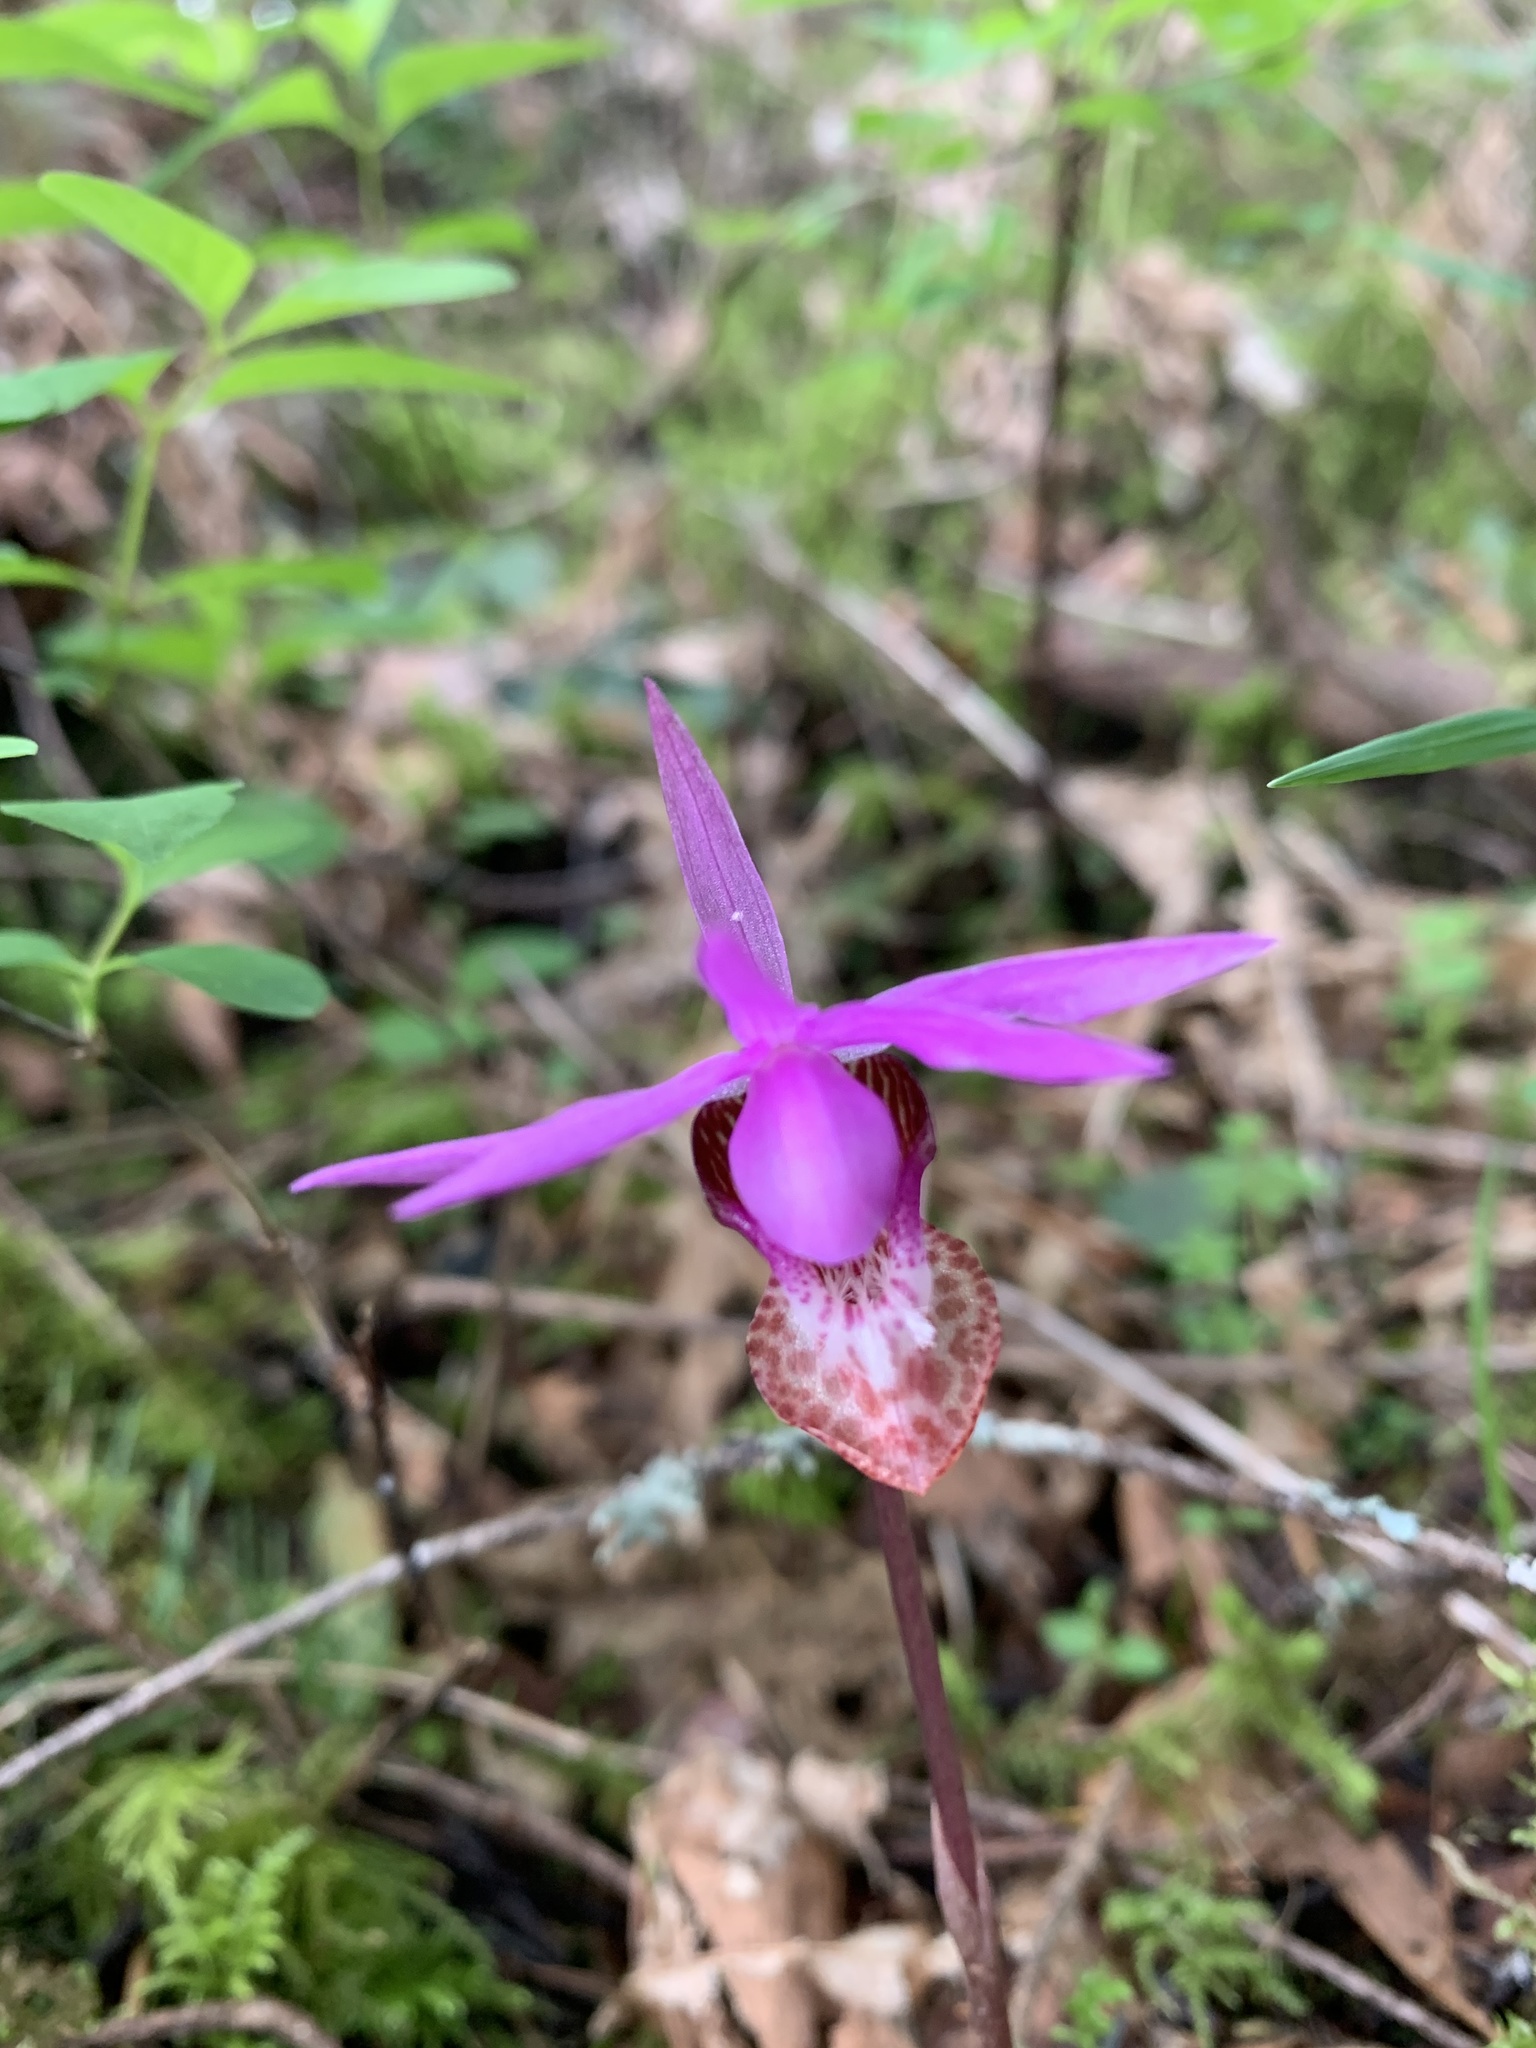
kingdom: Plantae
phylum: Tracheophyta
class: Liliopsida
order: Asparagales
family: Orchidaceae
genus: Calypso
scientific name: Calypso bulbosa
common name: Calypso
